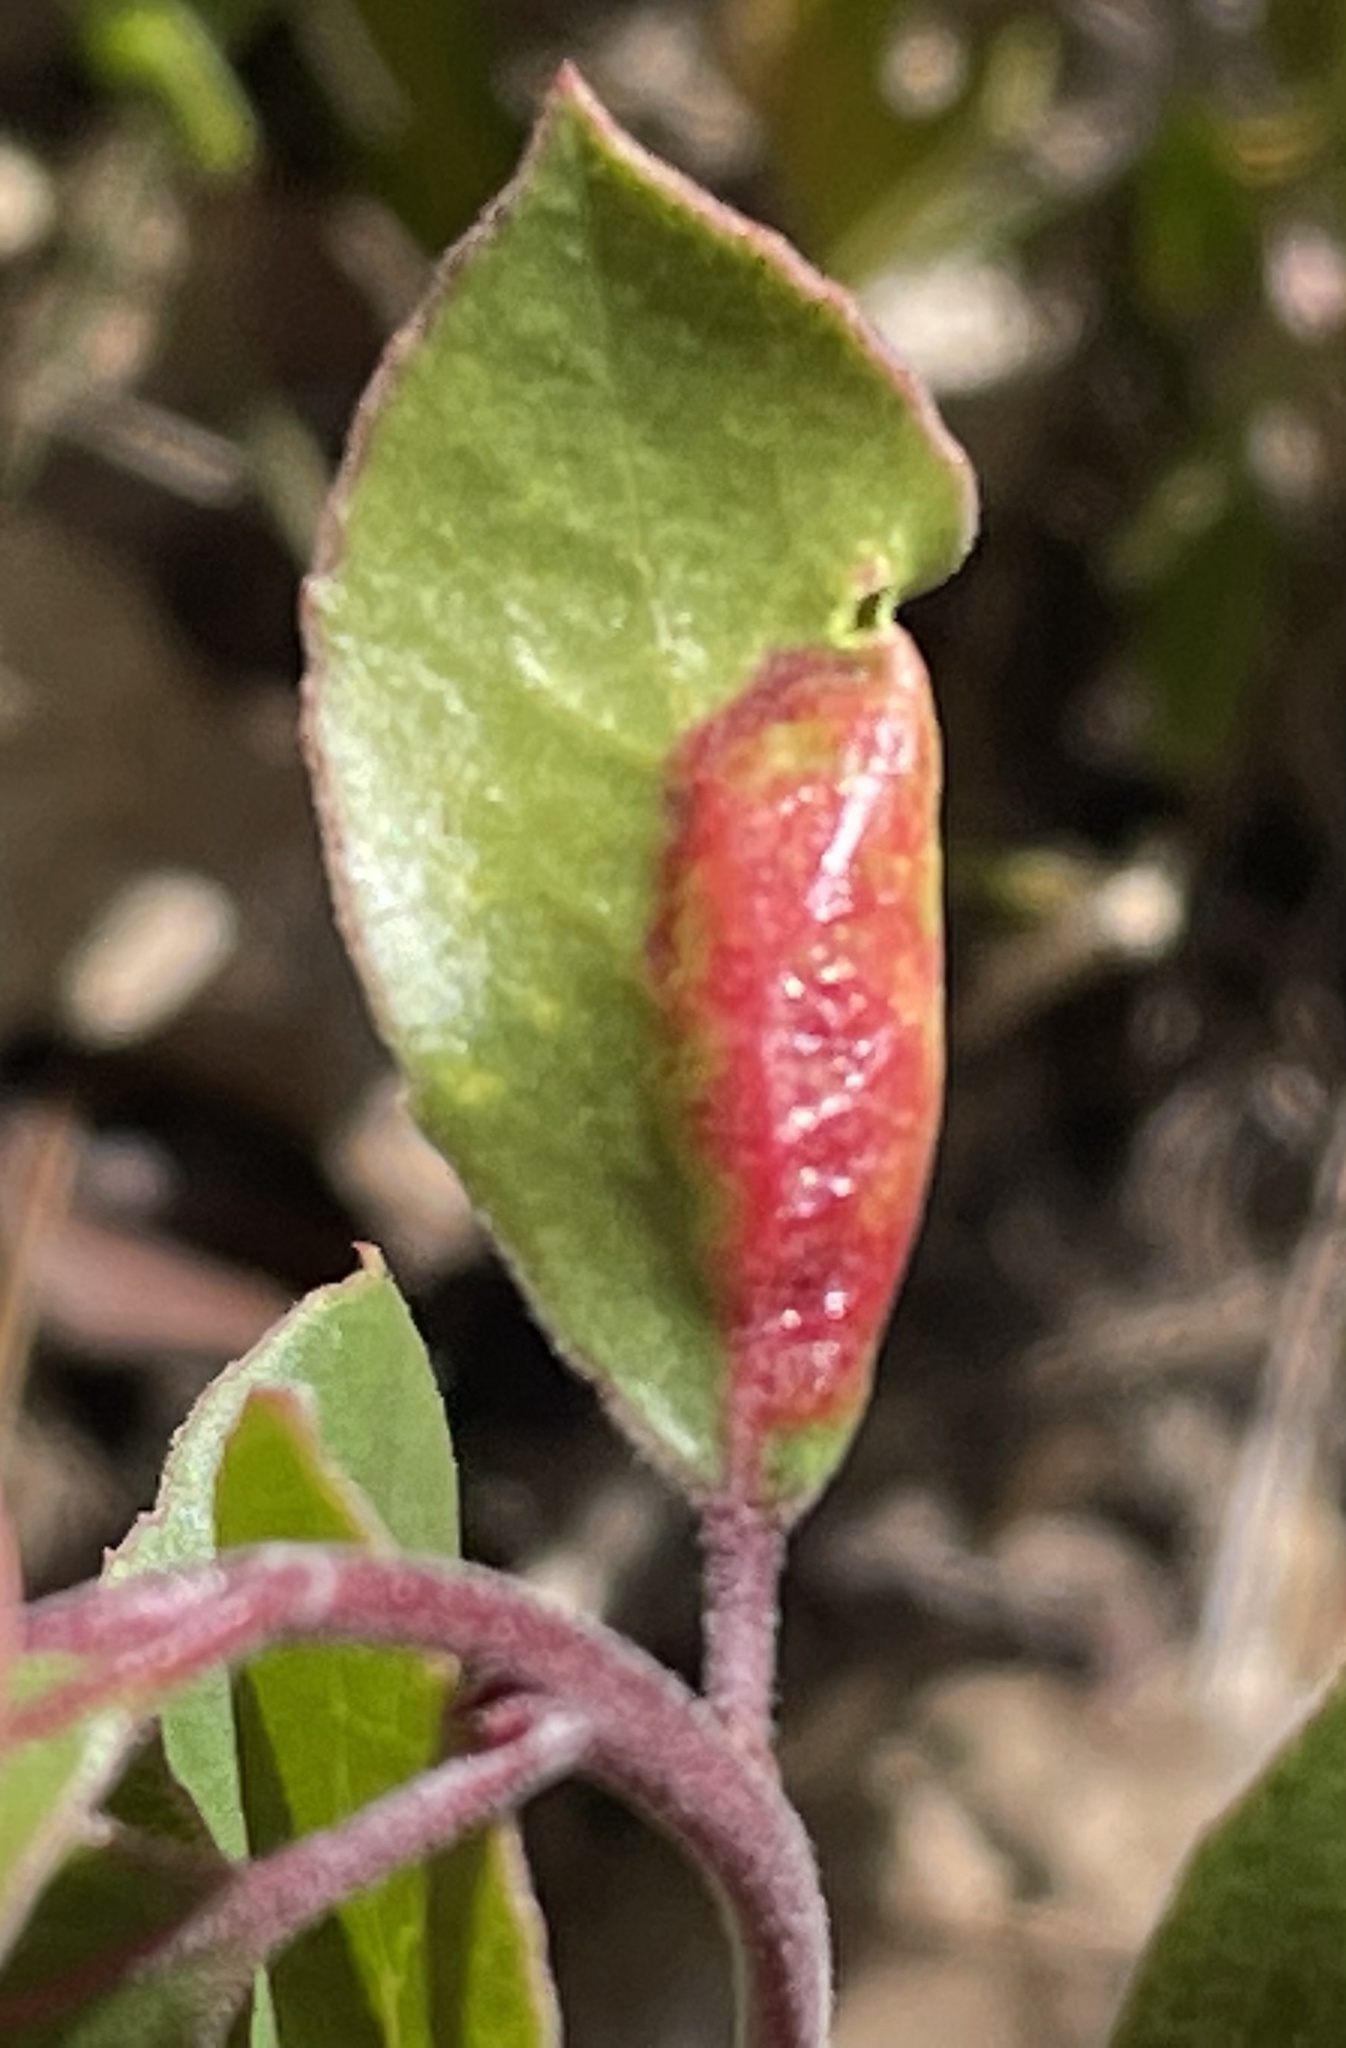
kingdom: Animalia
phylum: Arthropoda
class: Insecta
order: Hemiptera
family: Aphididae
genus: Tamalia
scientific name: Tamalia coweni
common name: Manzanita leafgall aphid
